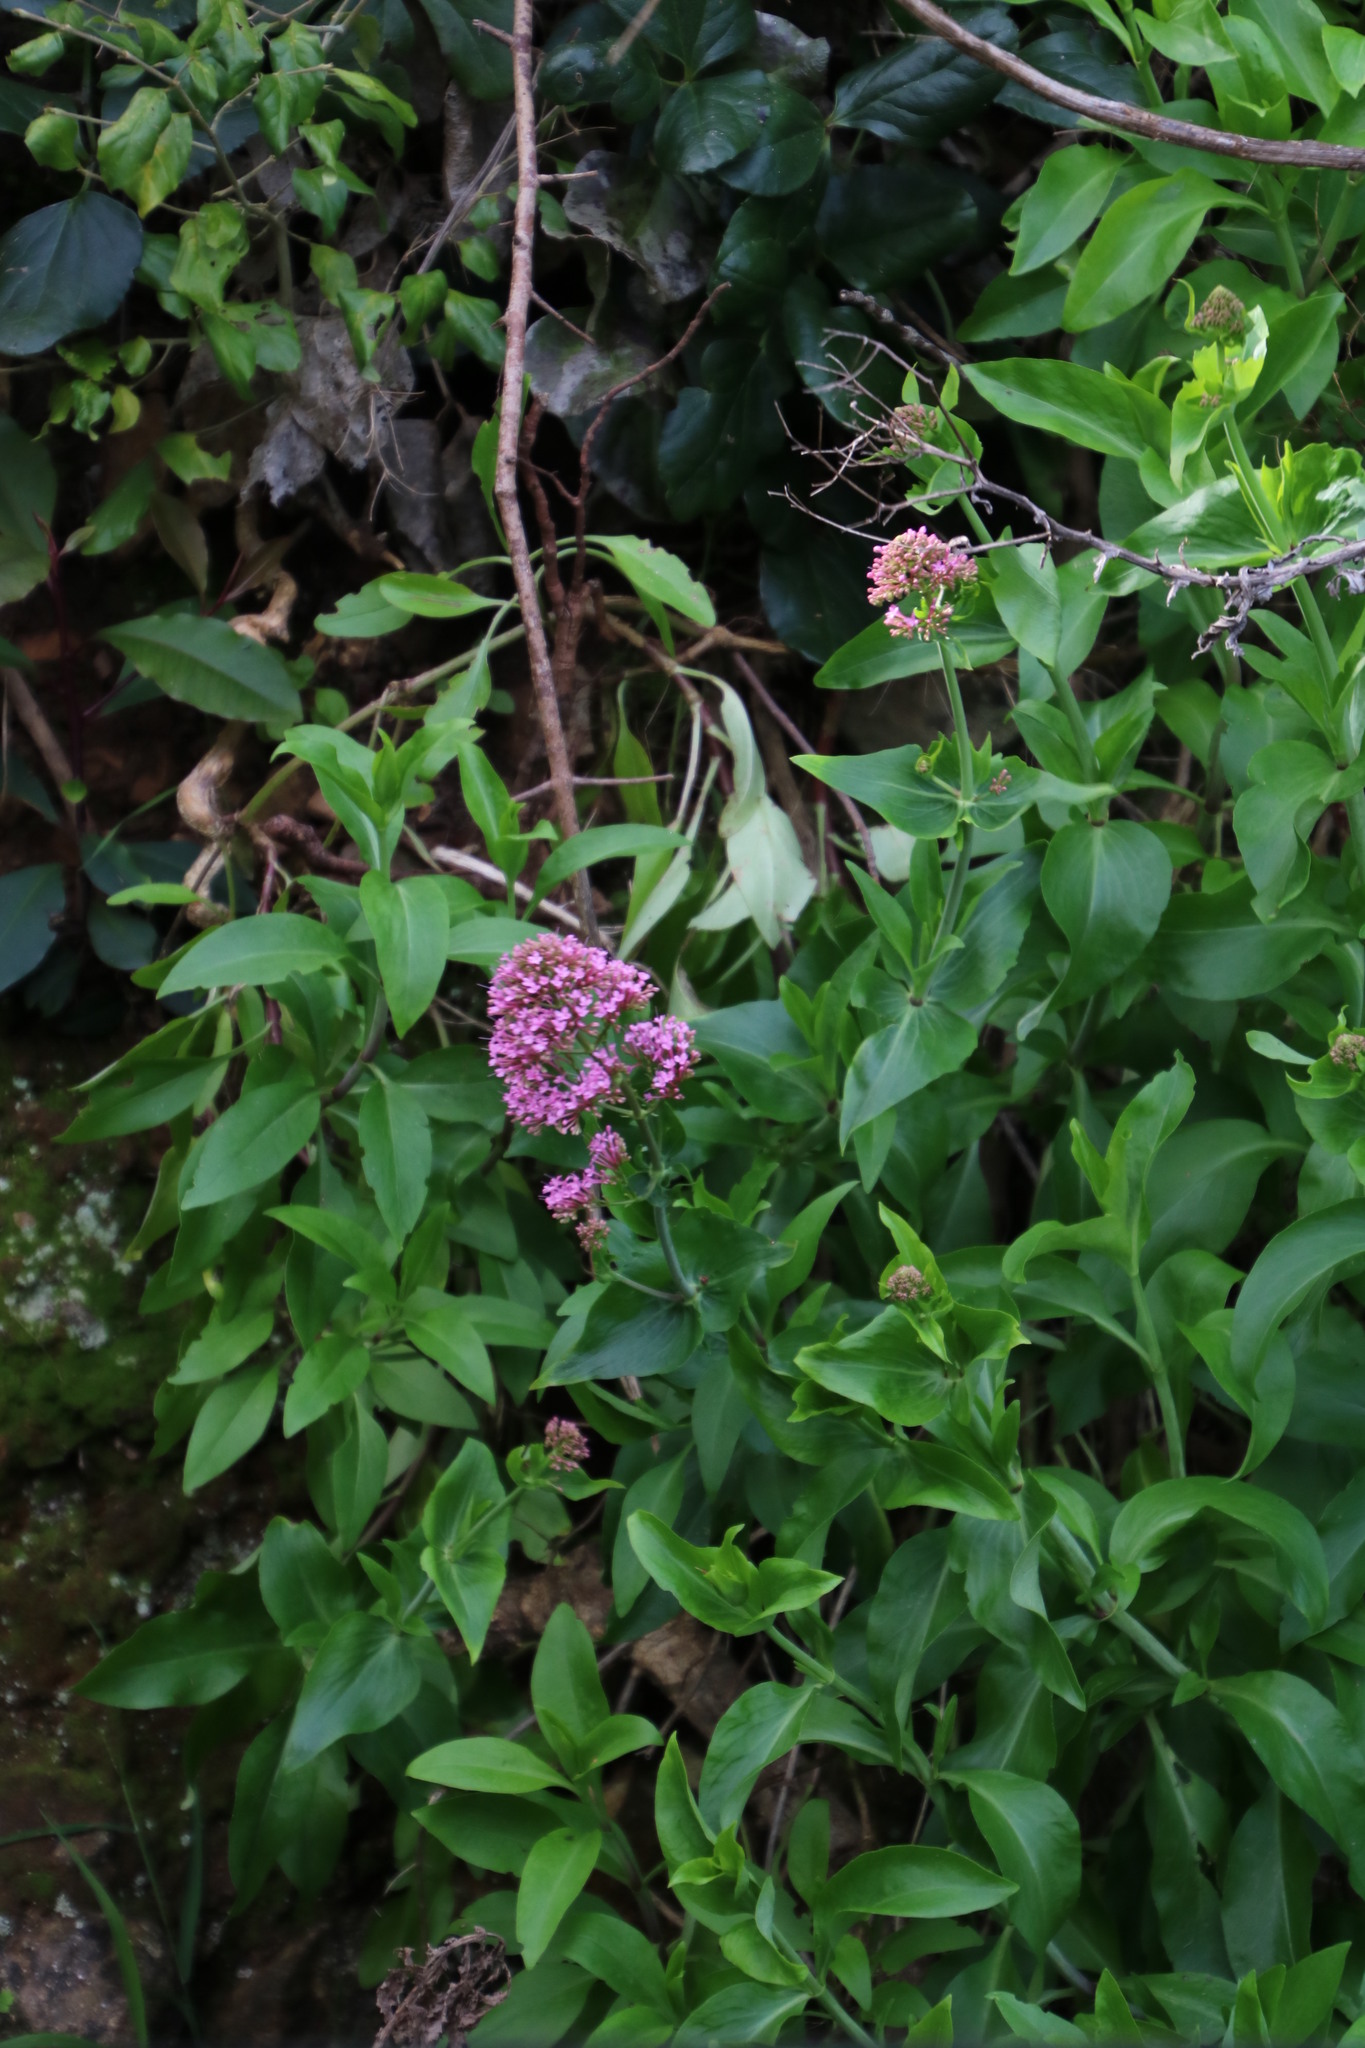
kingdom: Plantae
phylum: Tracheophyta
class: Magnoliopsida
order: Dipsacales
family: Caprifoliaceae
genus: Centranthus
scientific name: Centranthus ruber
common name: Red valerian
